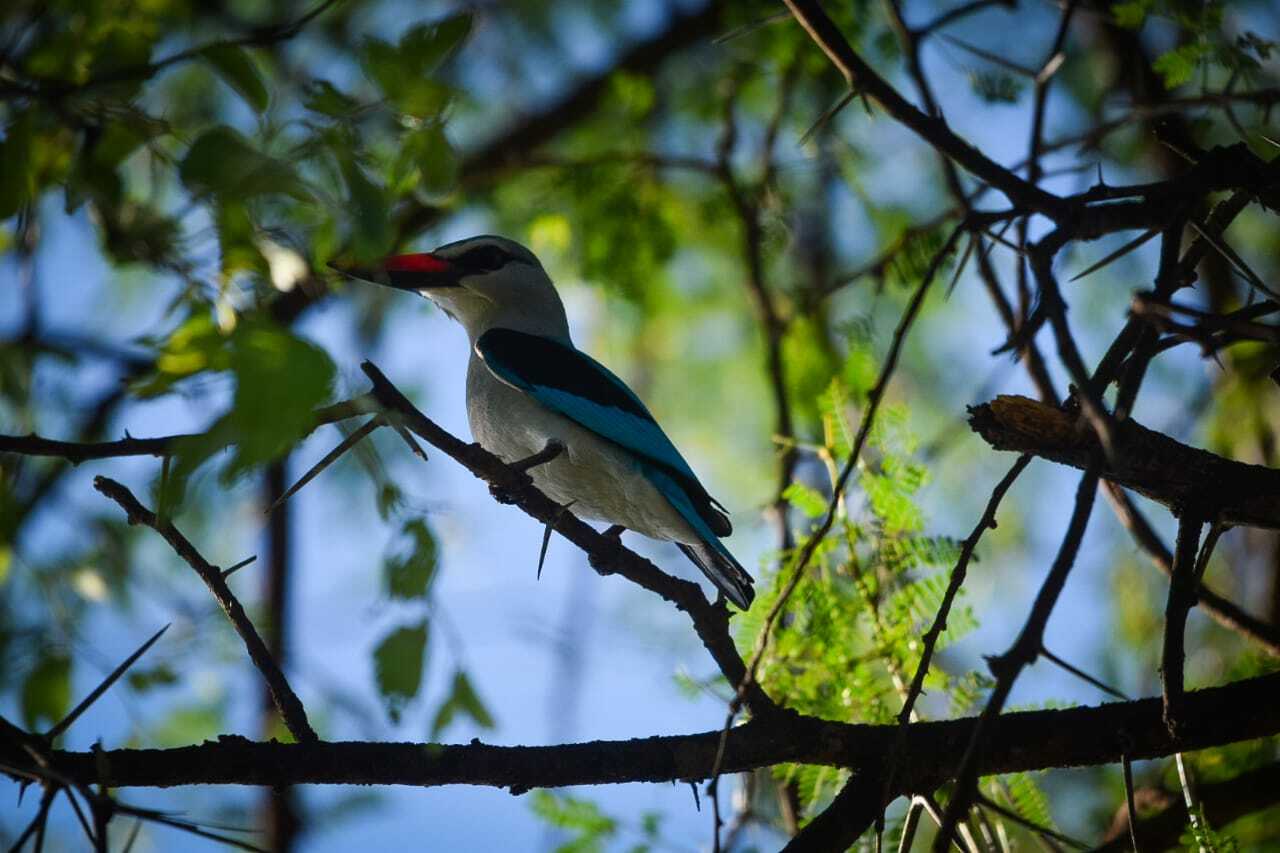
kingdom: Animalia
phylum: Chordata
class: Aves
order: Coraciiformes
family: Alcedinidae
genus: Halcyon
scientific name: Halcyon senegalensis
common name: Woodland kingfisher
